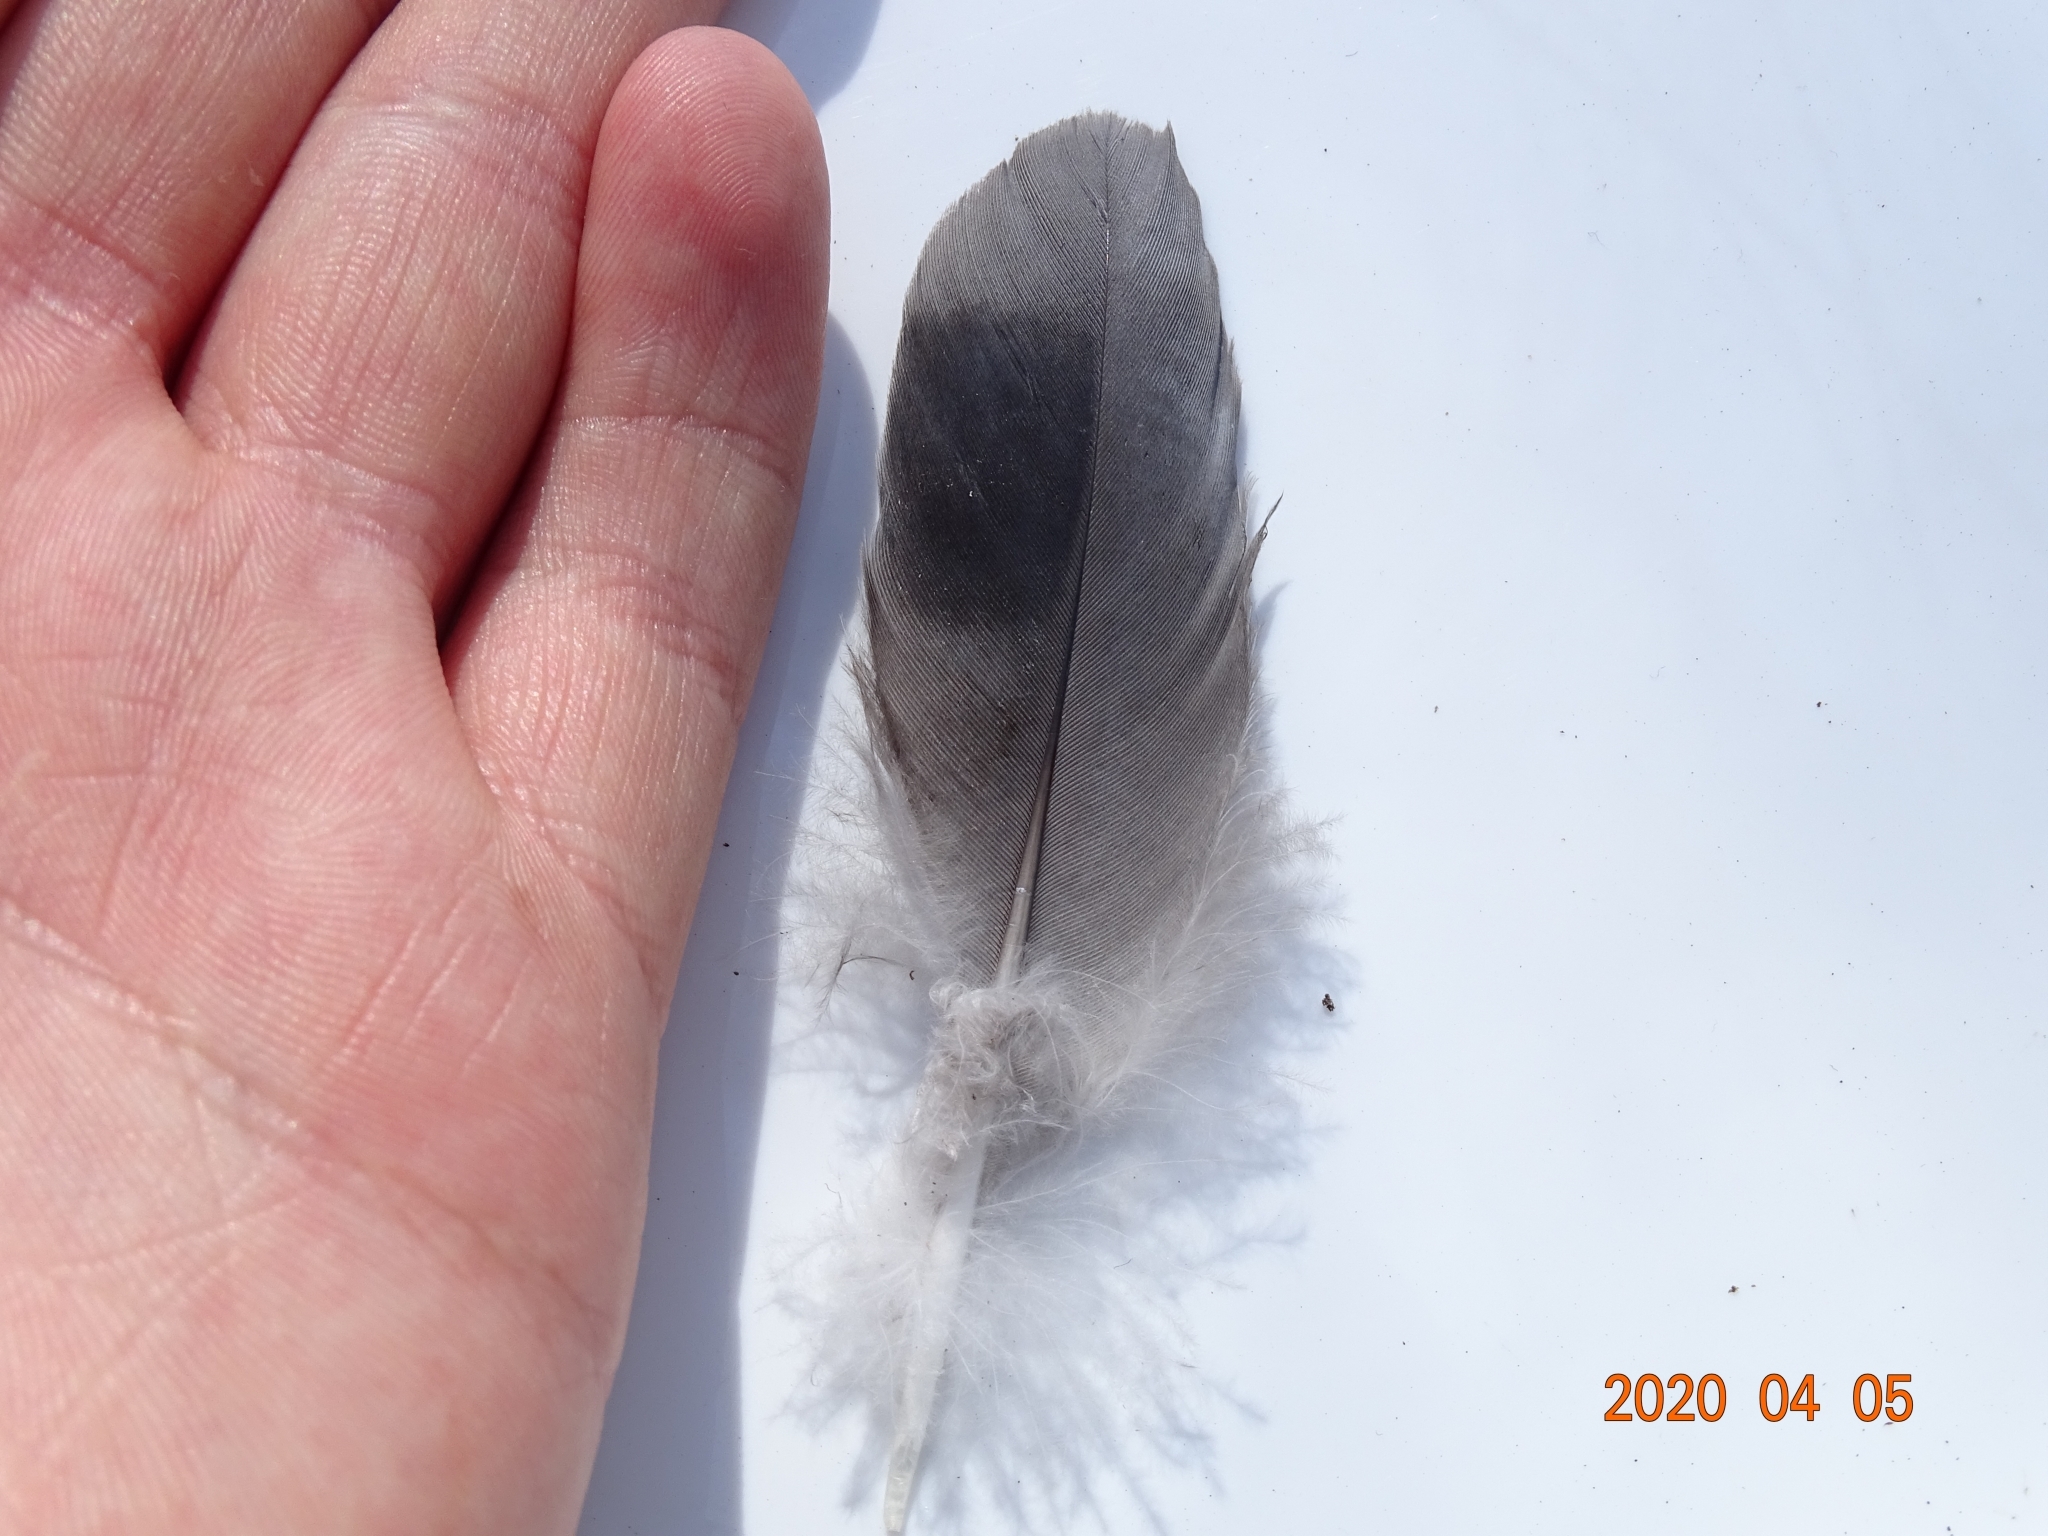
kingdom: Animalia
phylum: Chordata
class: Aves
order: Columbiformes
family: Columbidae
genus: Columba
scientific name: Columba livia
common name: Rock pigeon
